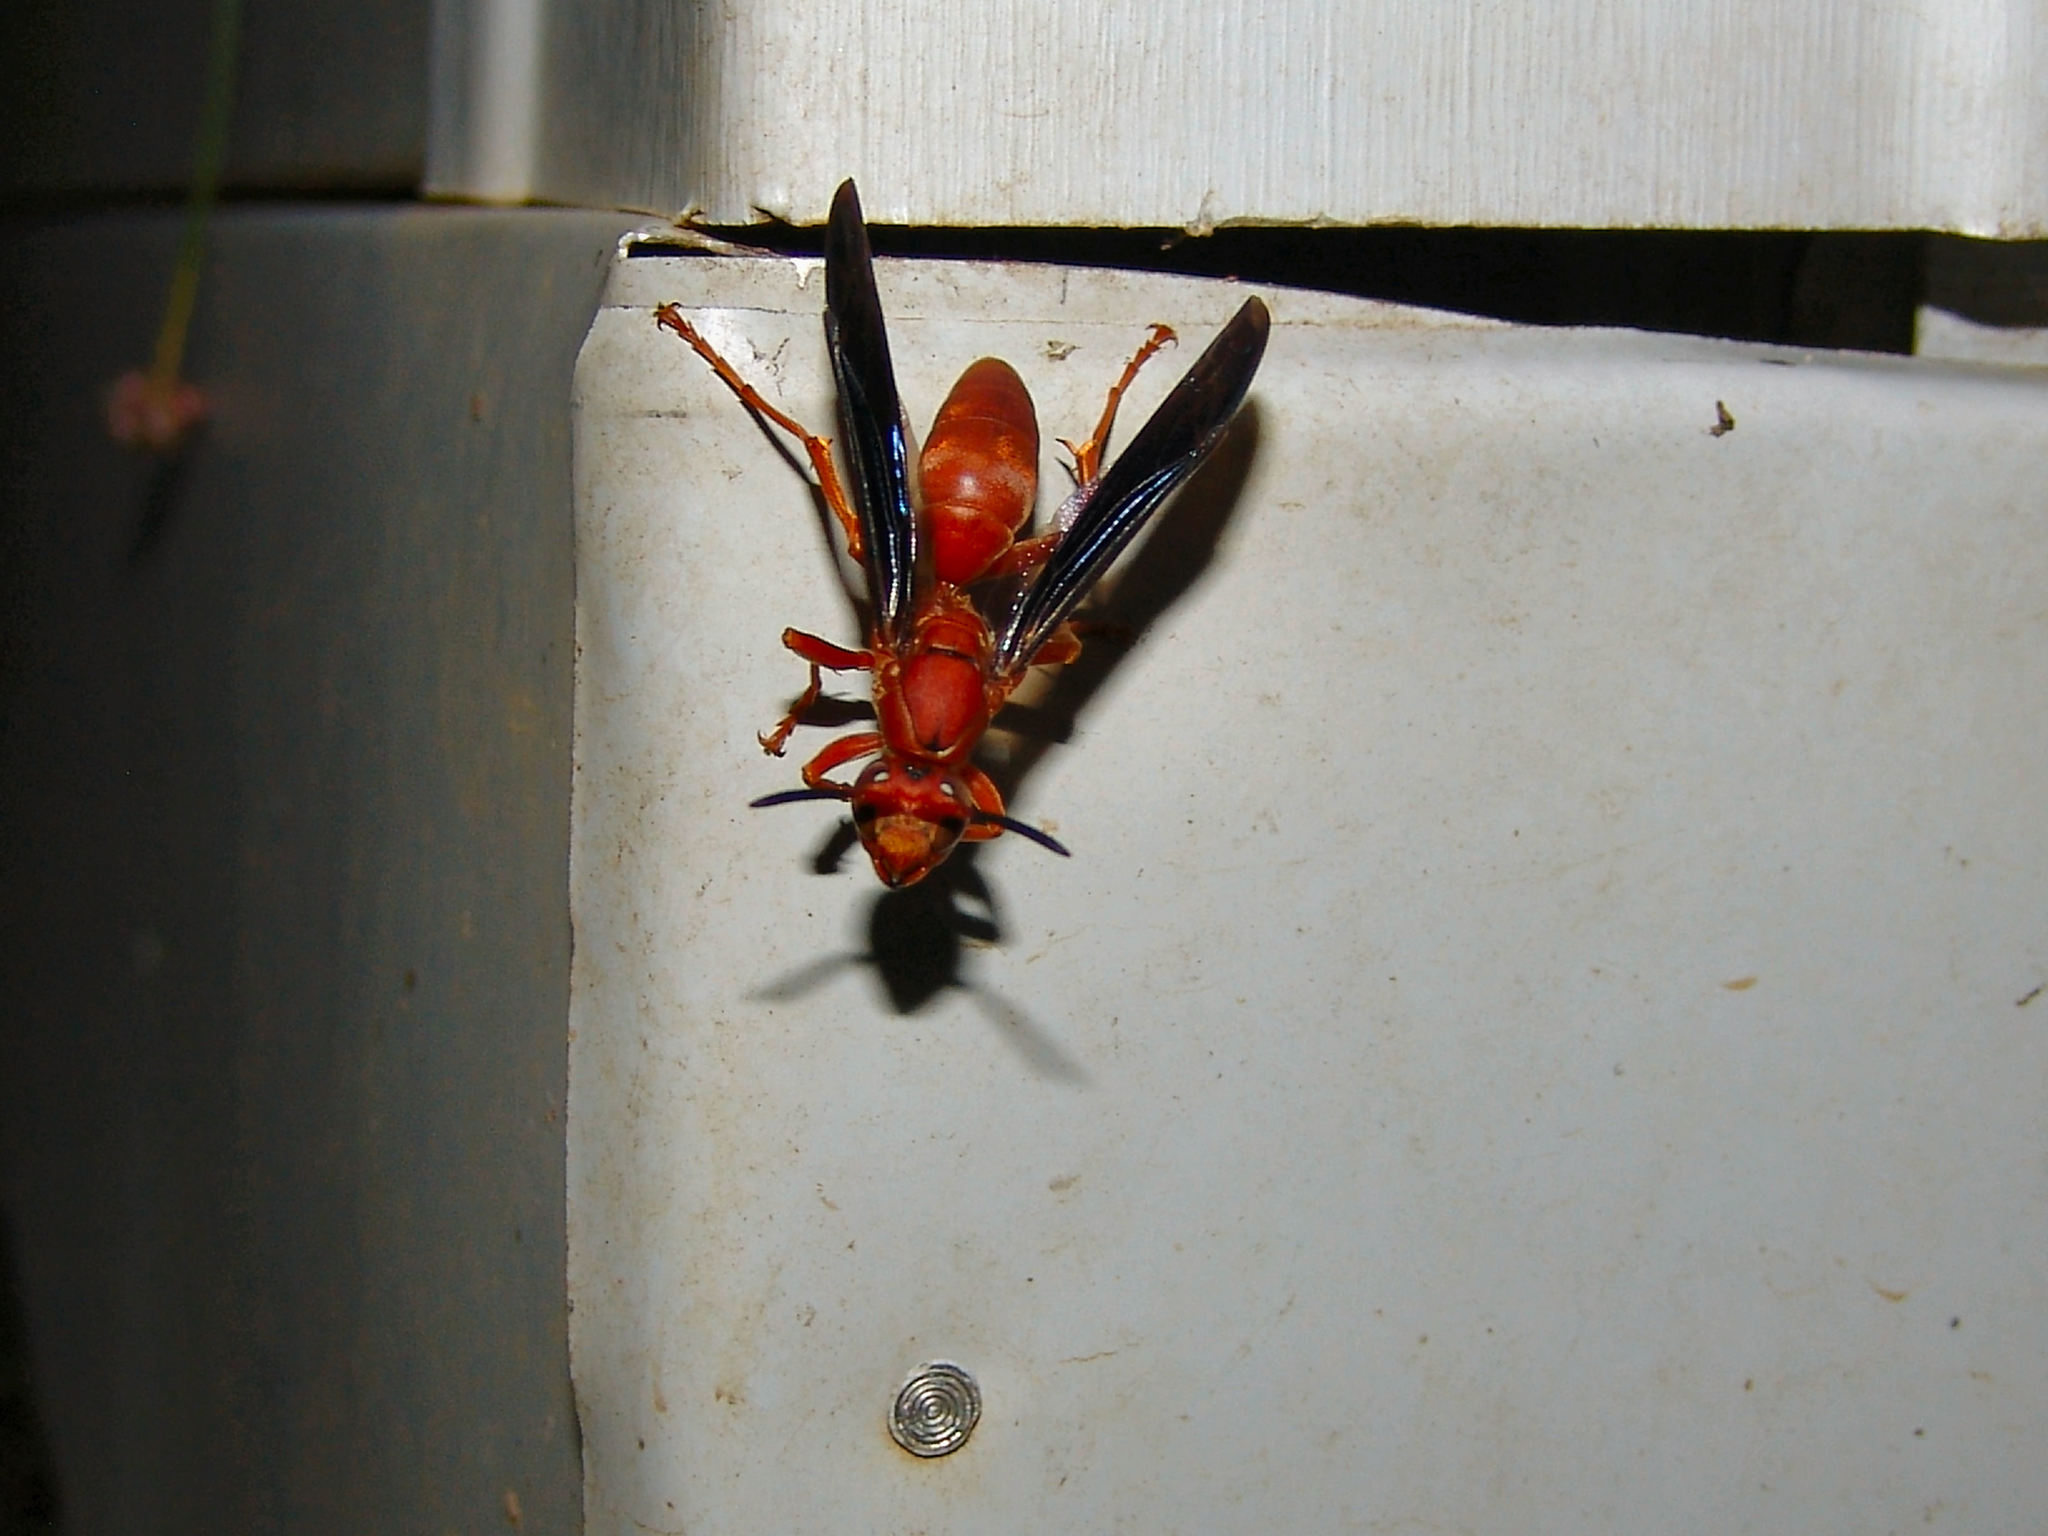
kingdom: Animalia
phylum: Arthropoda
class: Insecta
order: Hymenoptera
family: Eumenidae
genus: Polistes
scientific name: Polistes
